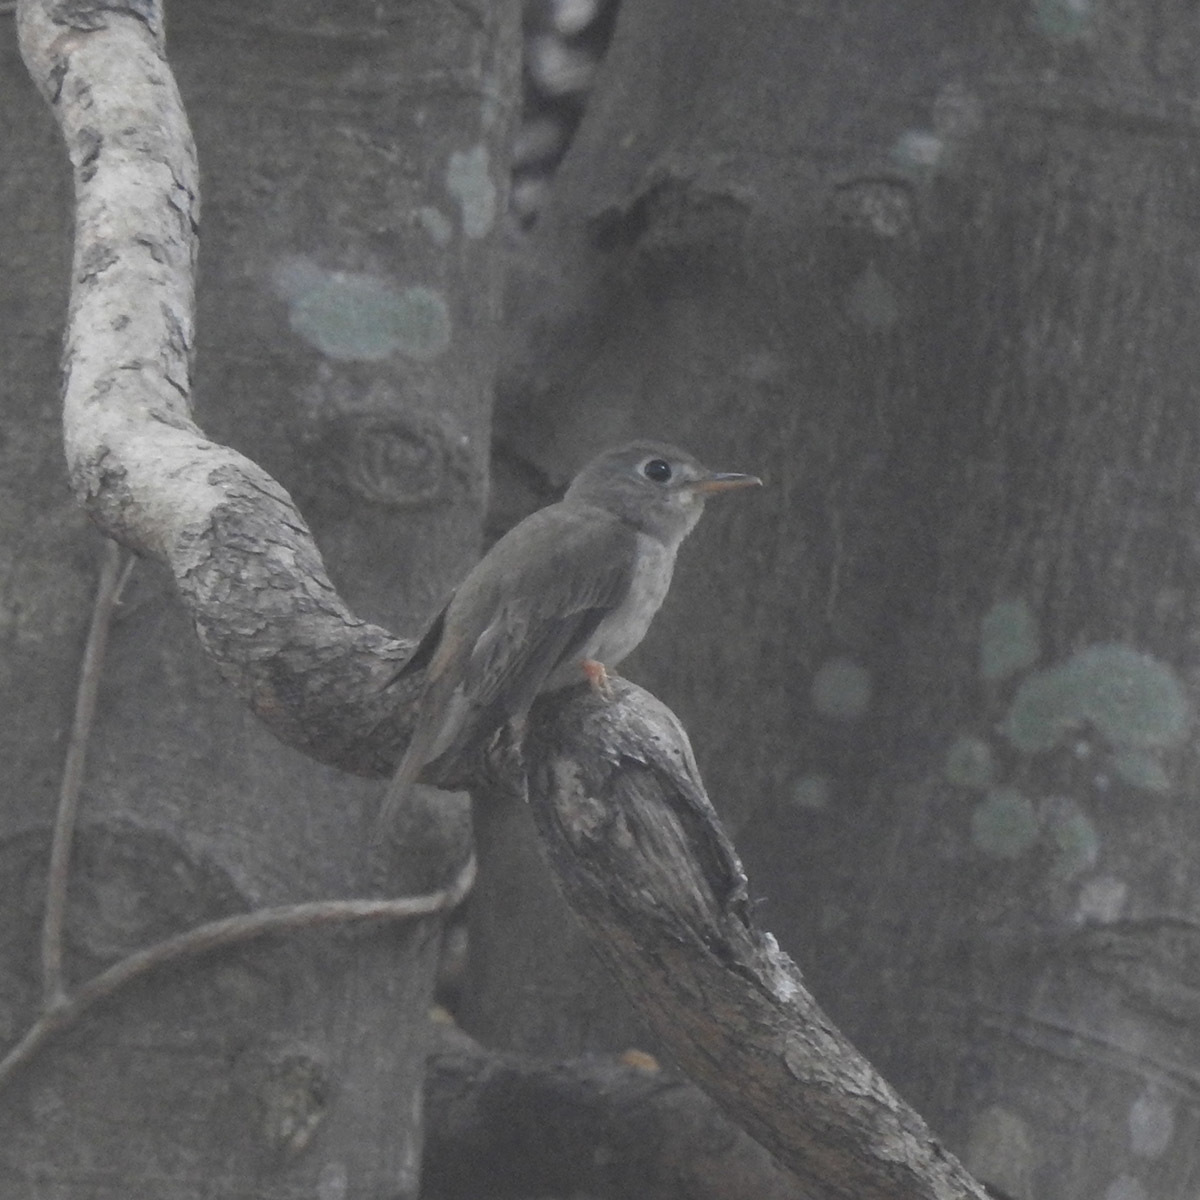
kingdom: Animalia
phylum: Chordata
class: Aves
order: Passeriformes
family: Muscicapidae
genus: Muscicapa
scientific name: Muscicapa muttui
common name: Brown-breasted flycatcher
